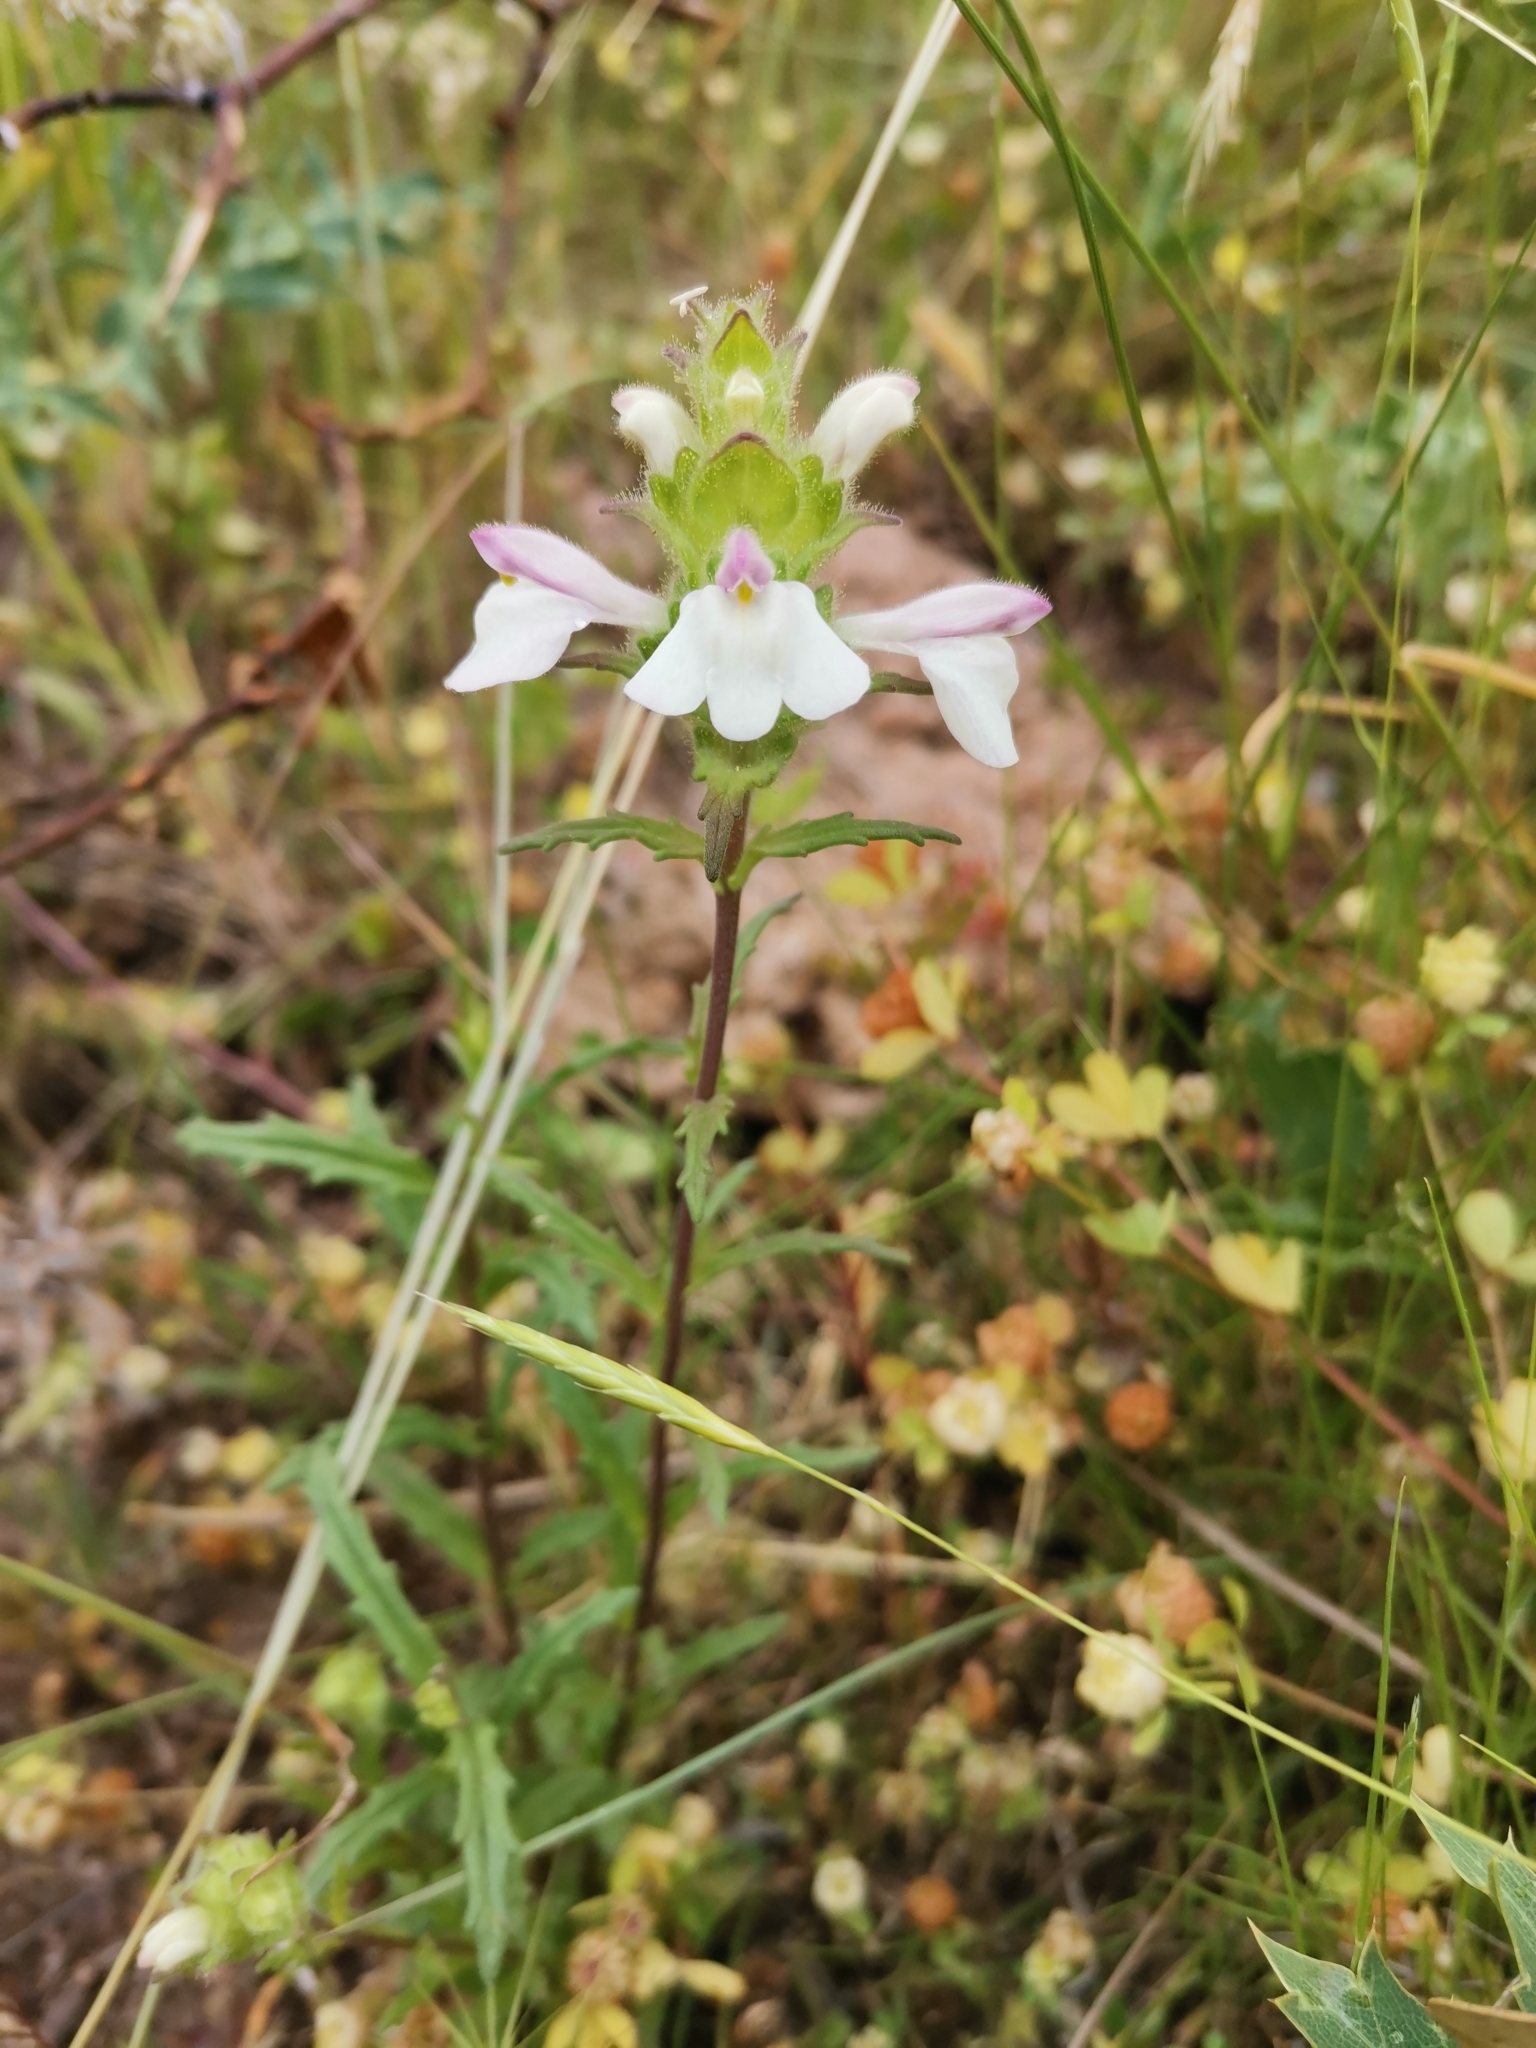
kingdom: Plantae
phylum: Tracheophyta
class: Magnoliopsida
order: Lamiales
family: Orobanchaceae
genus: Bellardia
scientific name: Bellardia trixago
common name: Mediterranean lineseed
